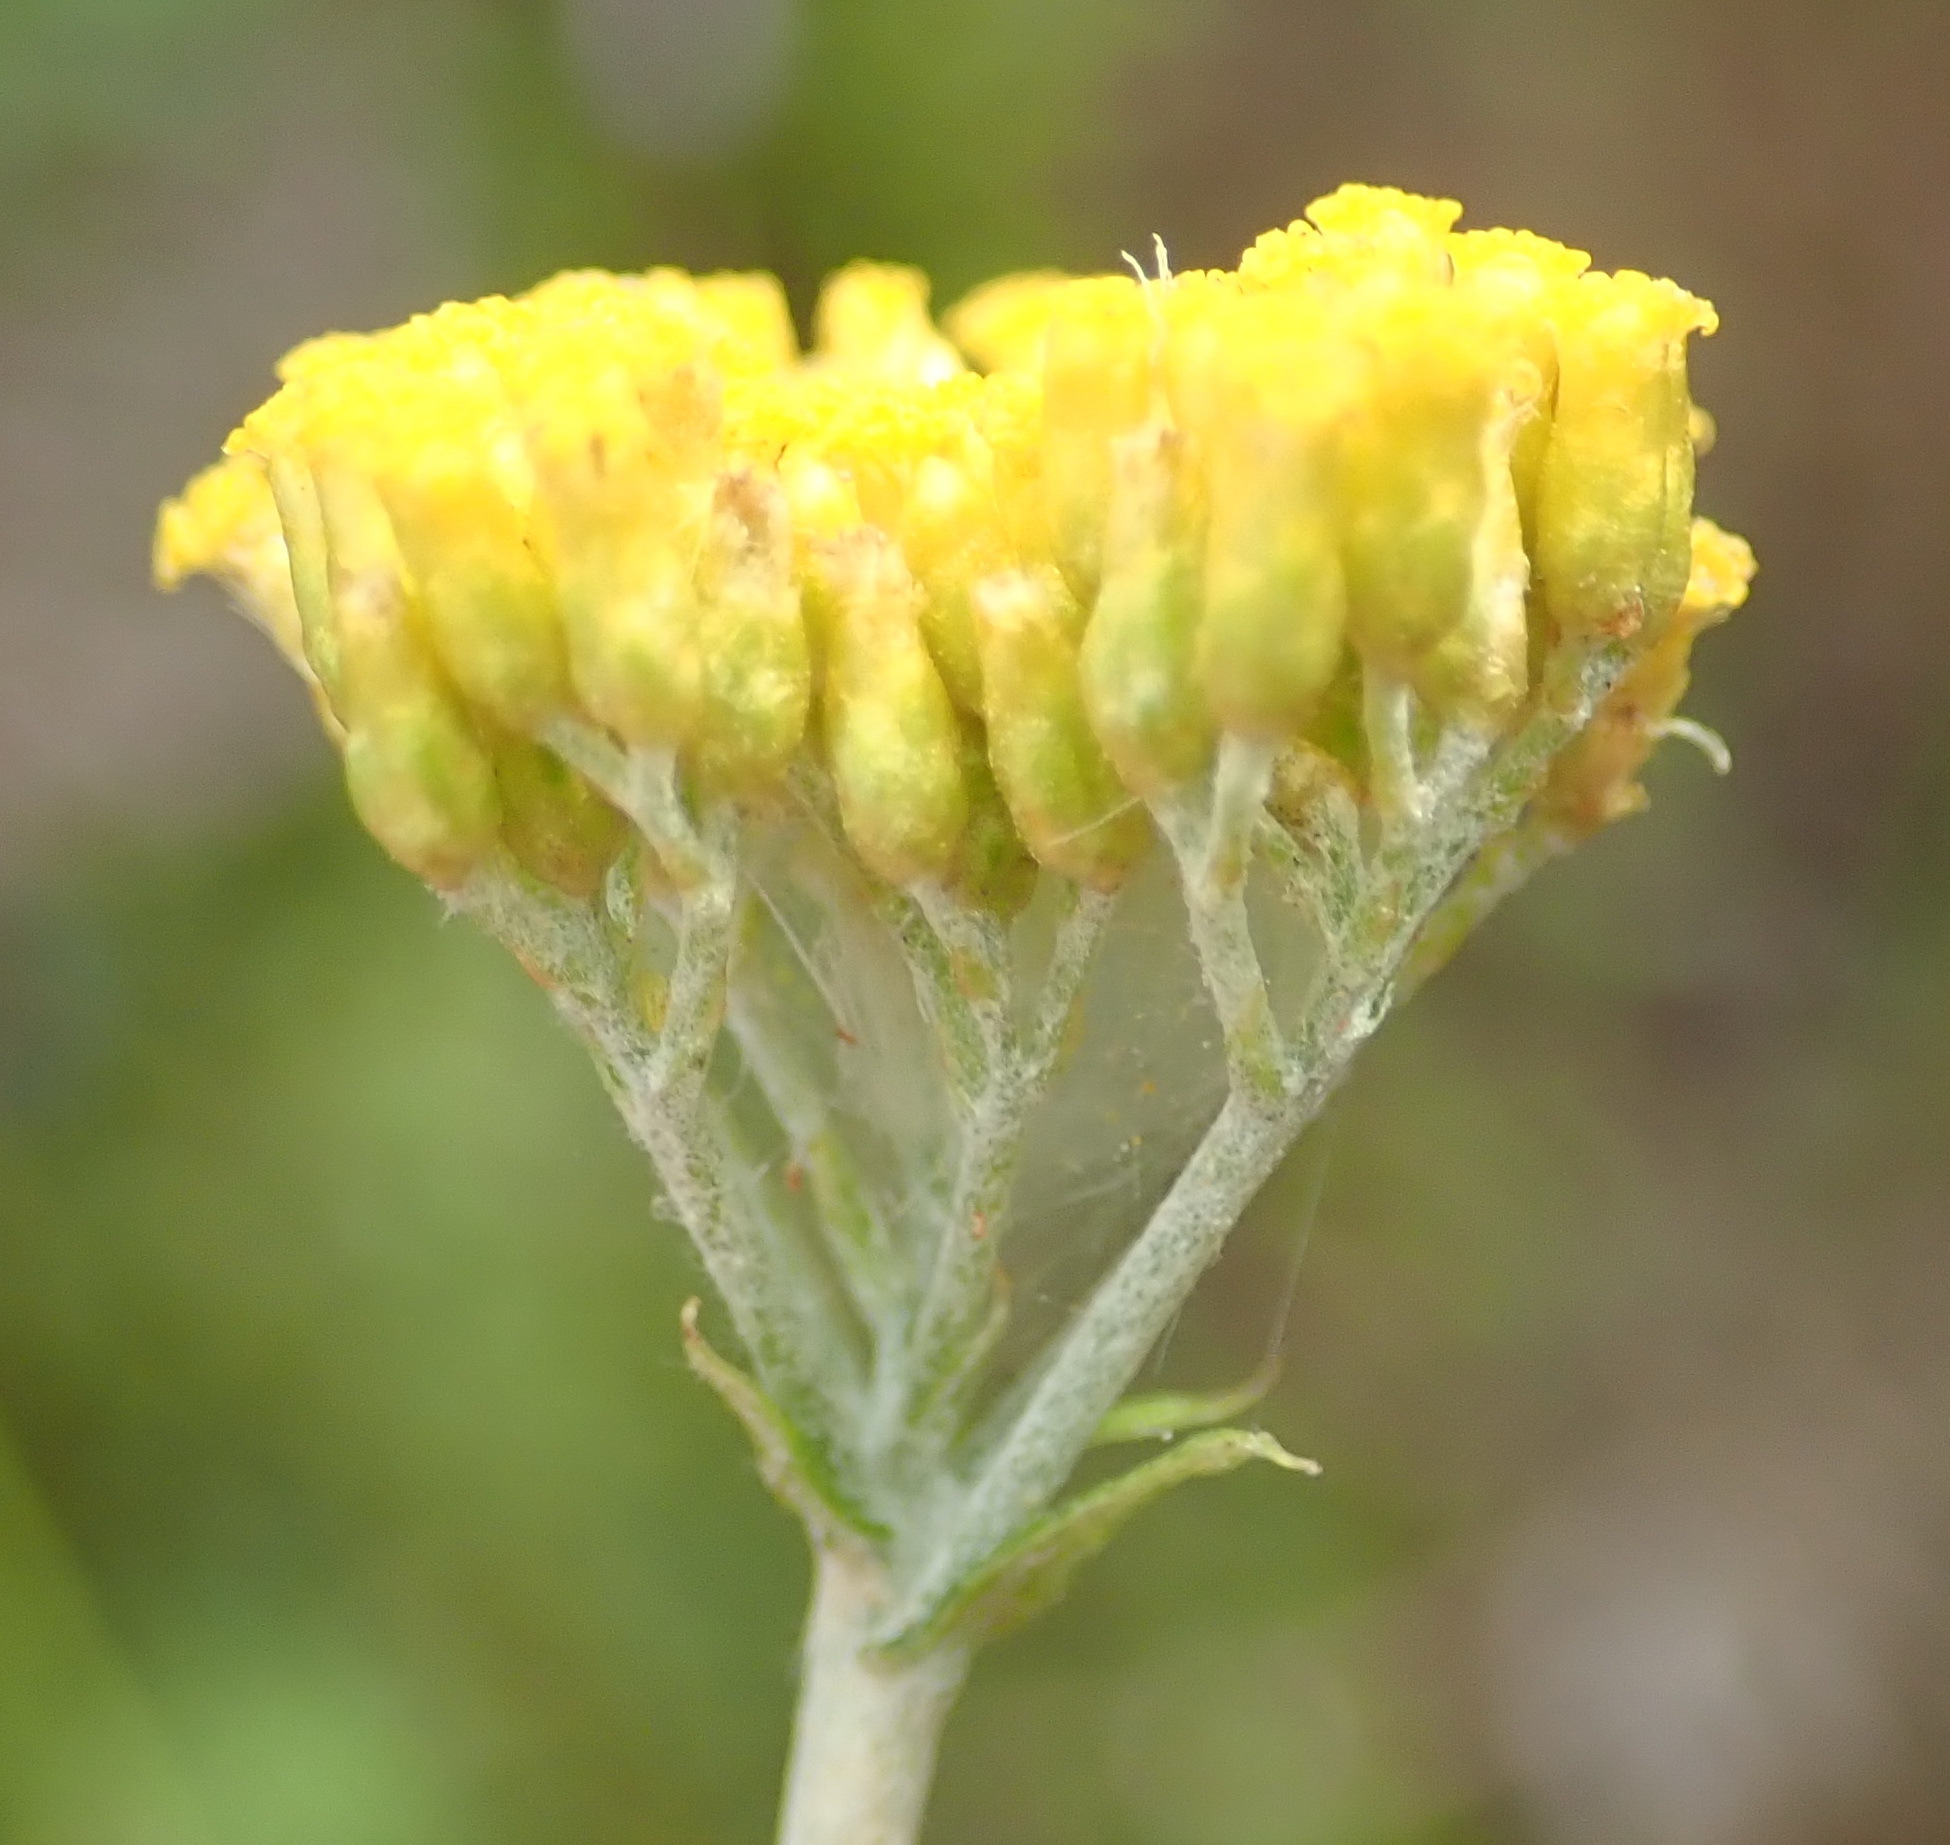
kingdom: Plantae
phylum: Tracheophyta
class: Magnoliopsida
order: Asterales
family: Asteraceae
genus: Helichrysum
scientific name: Helichrysum cymosum
